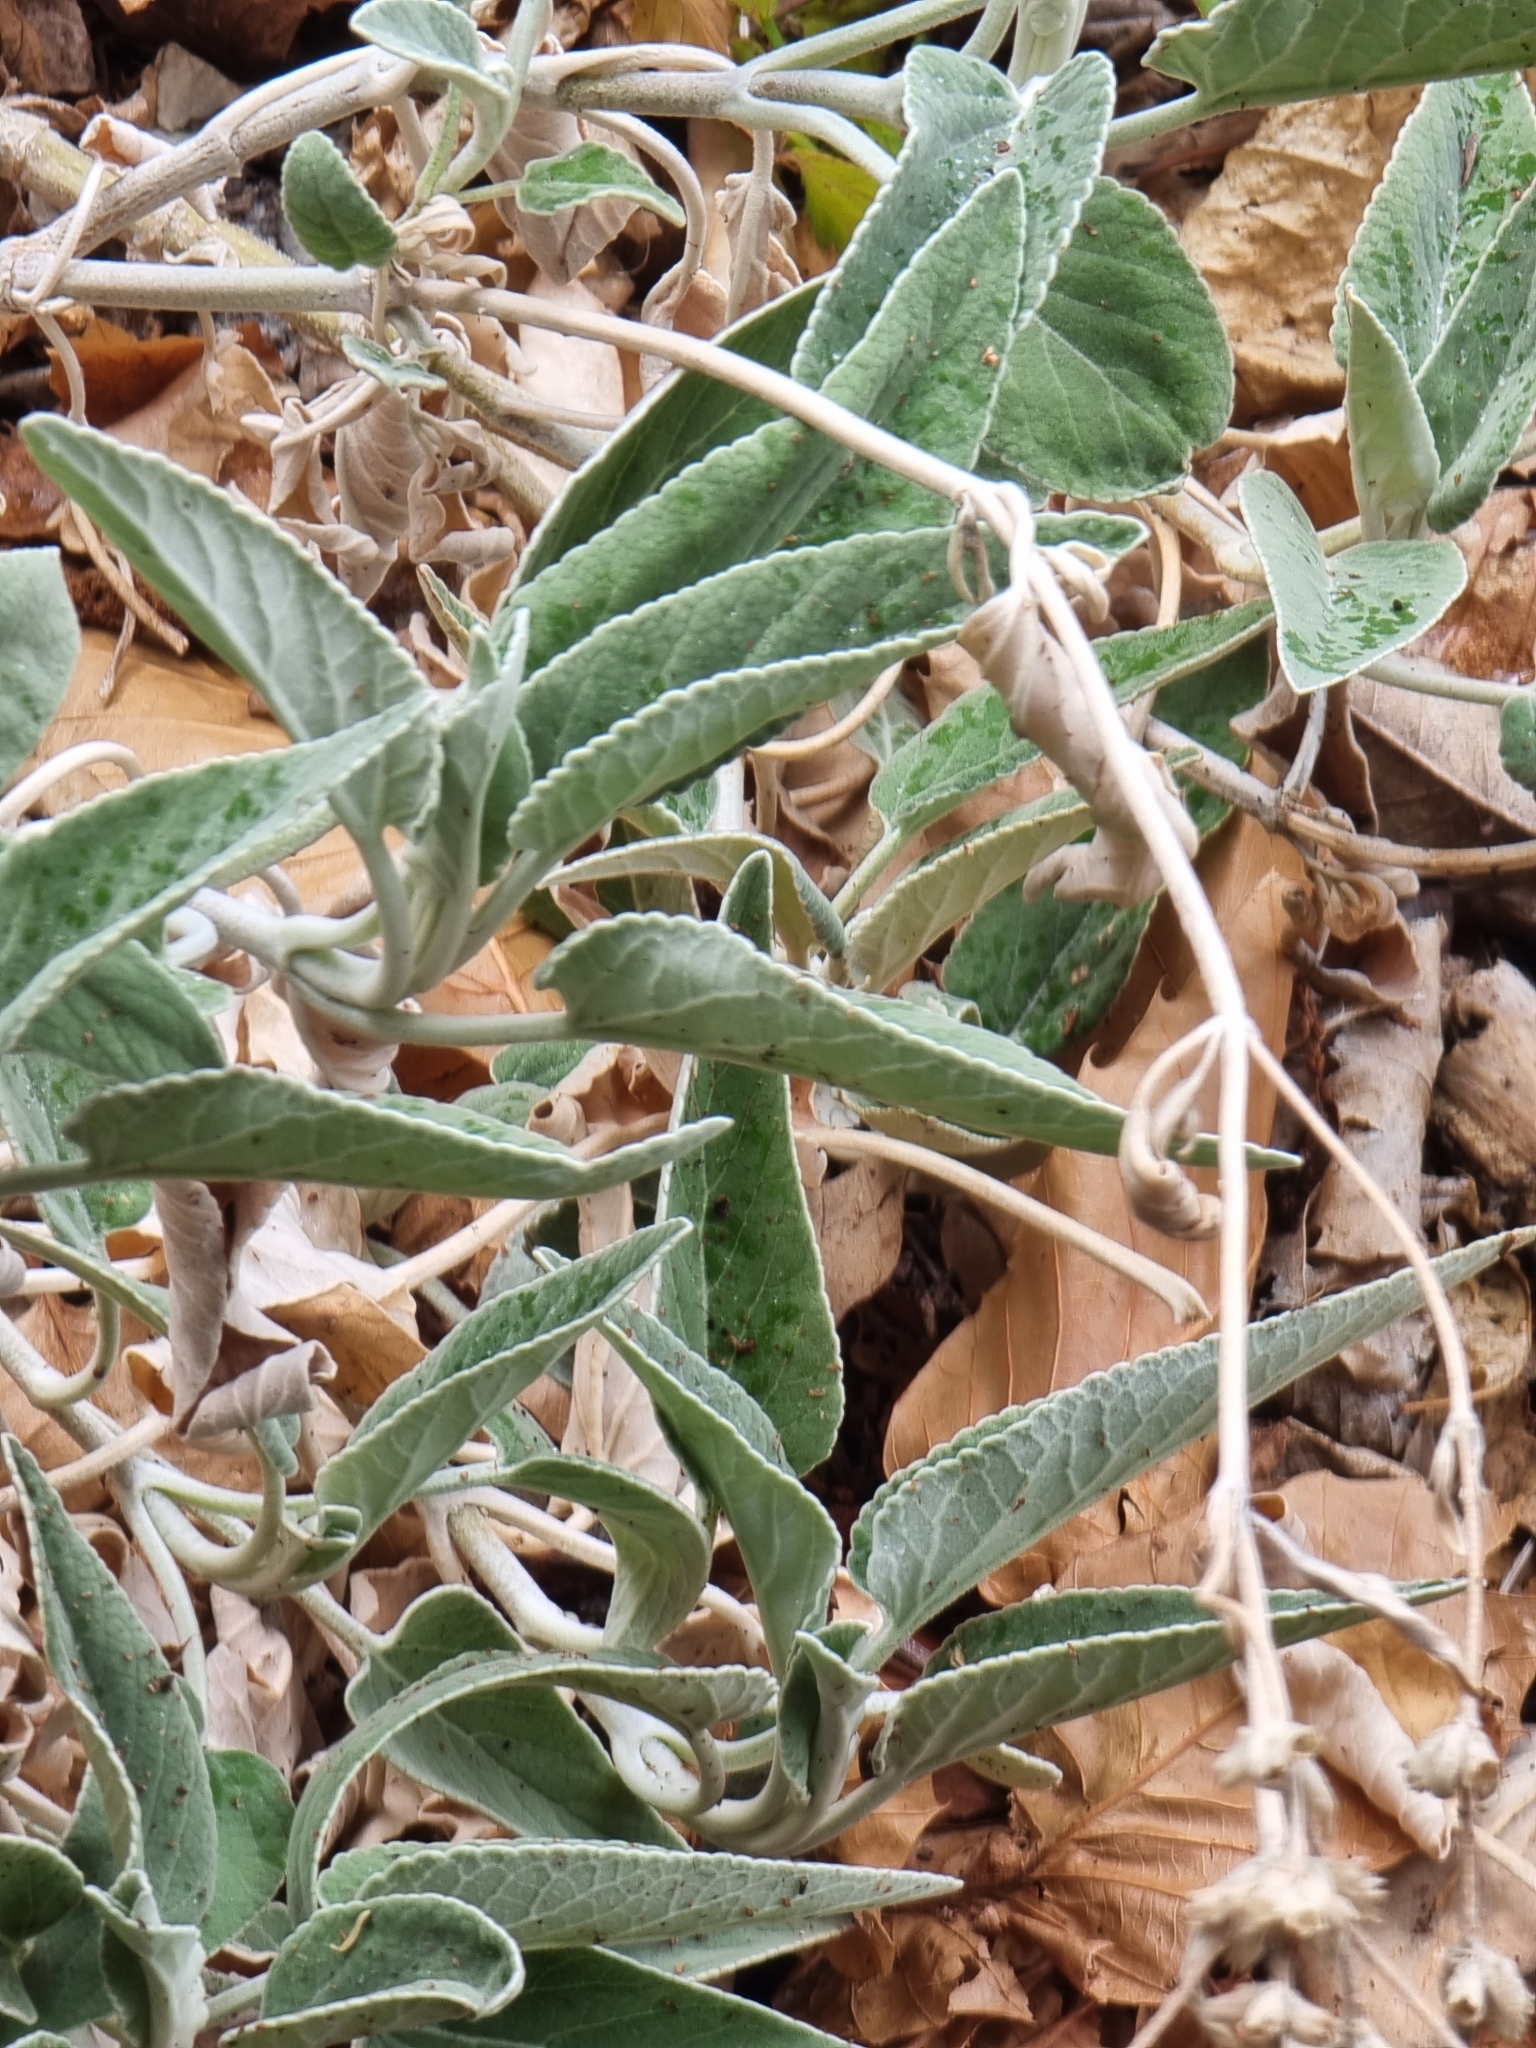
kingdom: Plantae
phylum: Tracheophyta
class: Magnoliopsida
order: Lamiales
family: Lamiaceae
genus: Sideritis
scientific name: Sideritis candicans
